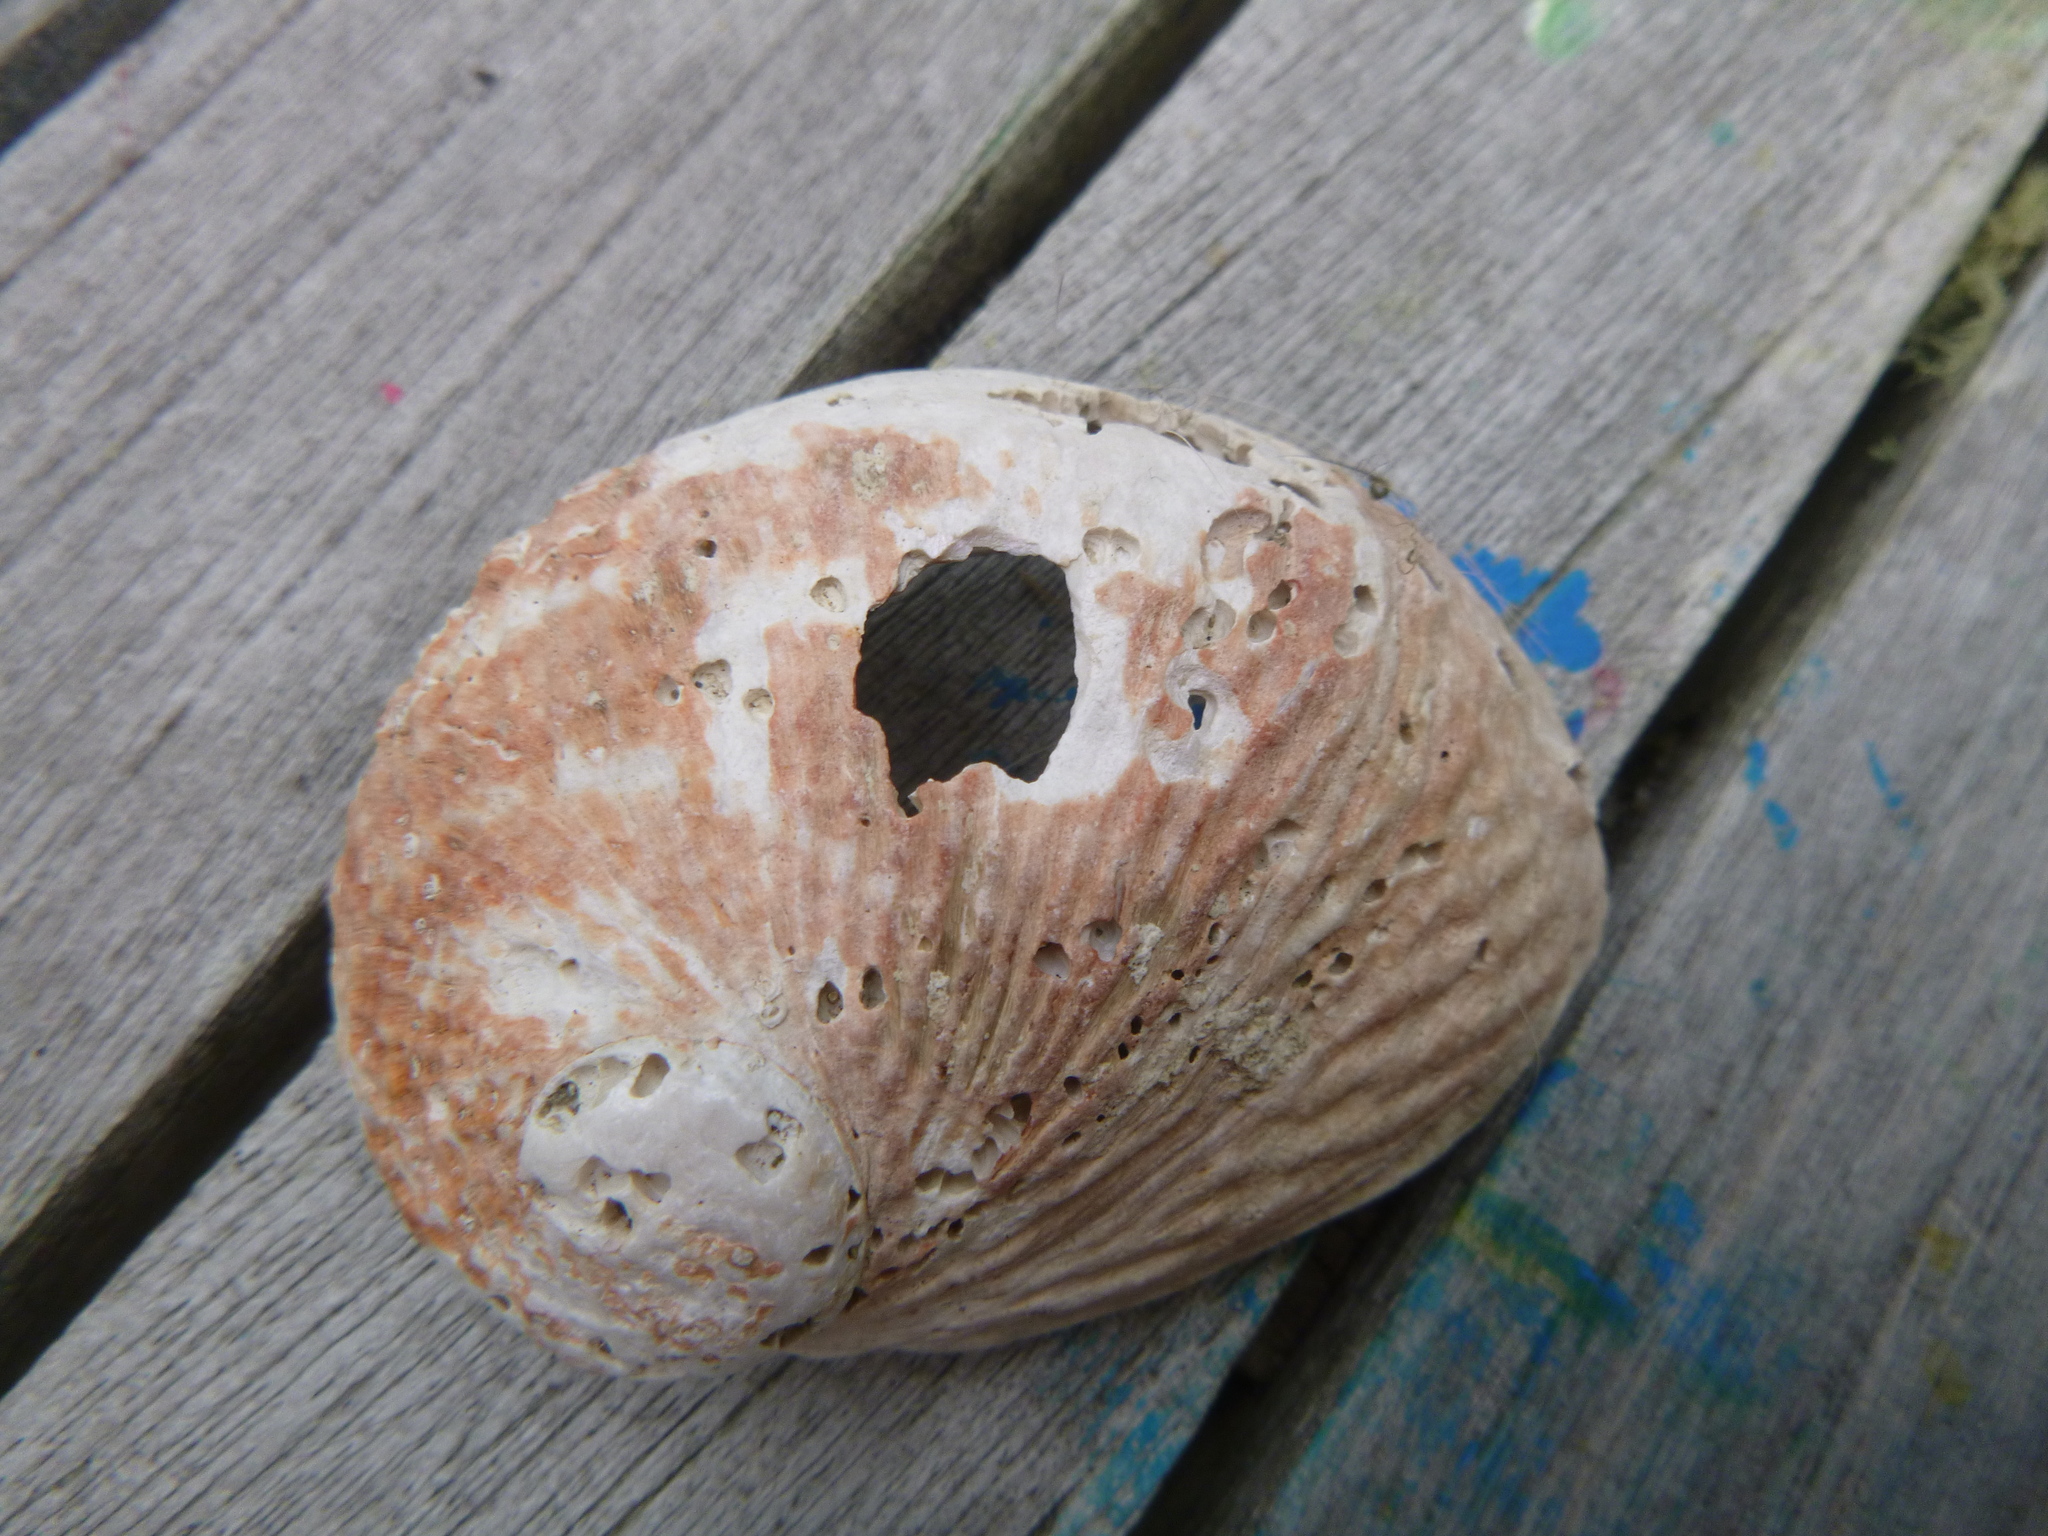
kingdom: Animalia
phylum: Mollusca
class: Gastropoda
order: Lepetellida
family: Haliotidae
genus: Haliotis
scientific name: Haliotis australis
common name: Silver abalone
